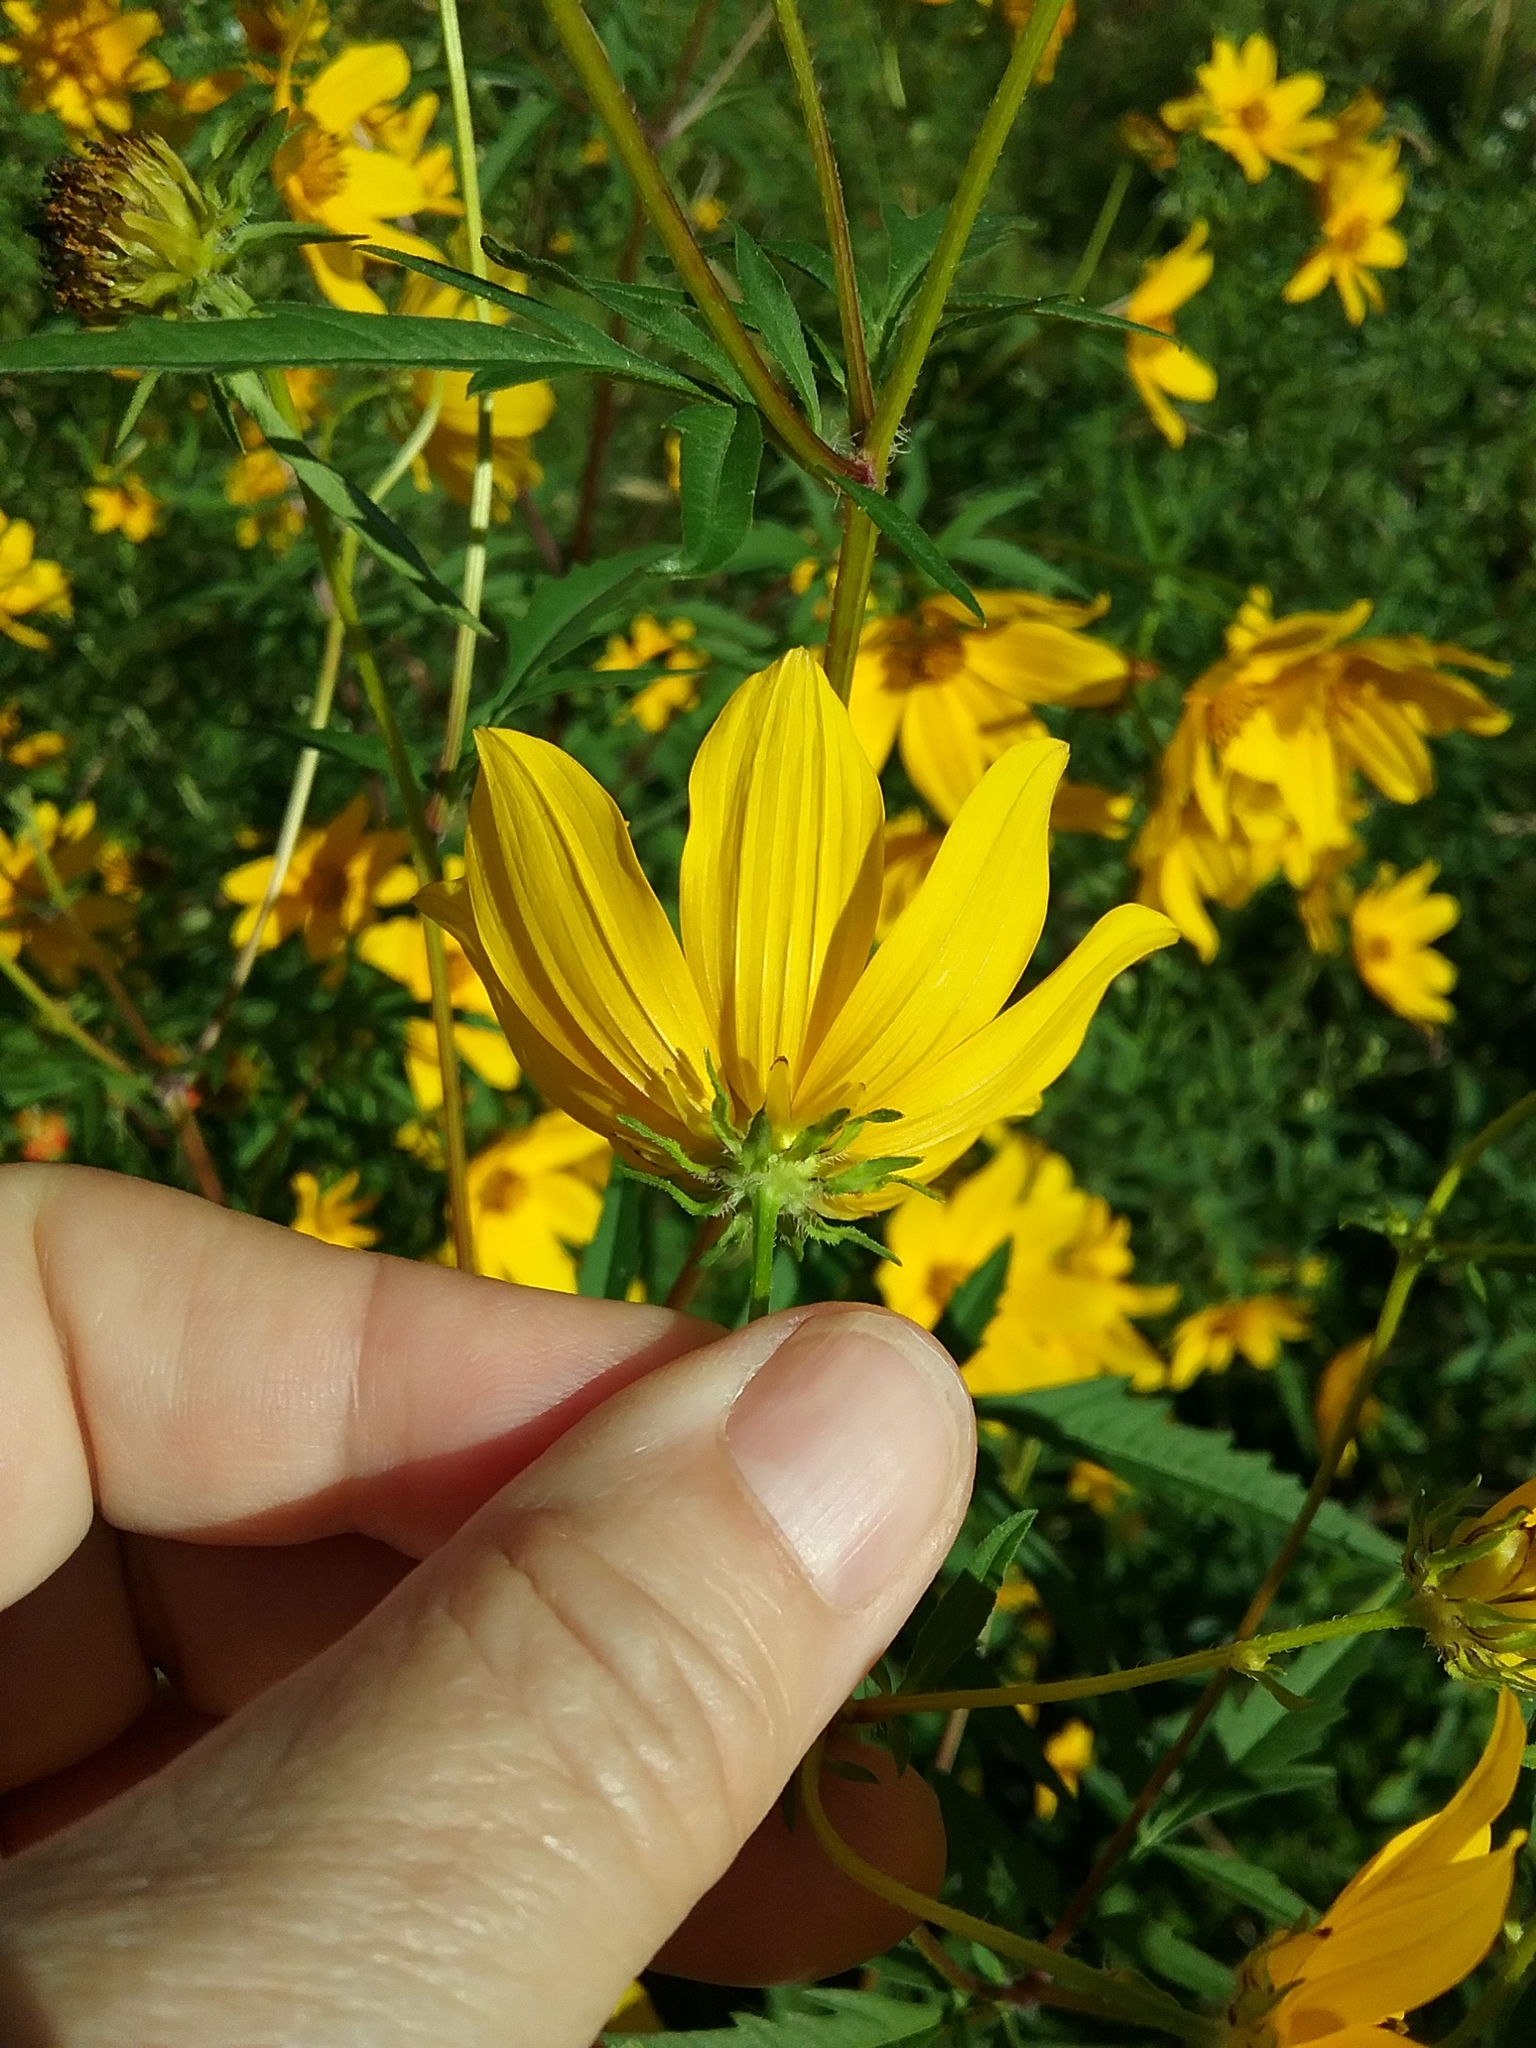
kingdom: Plantae
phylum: Tracheophyta
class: Magnoliopsida
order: Asterales
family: Asteraceae
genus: Bidens
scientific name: Bidens polylepis
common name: Awnless beggarticks
